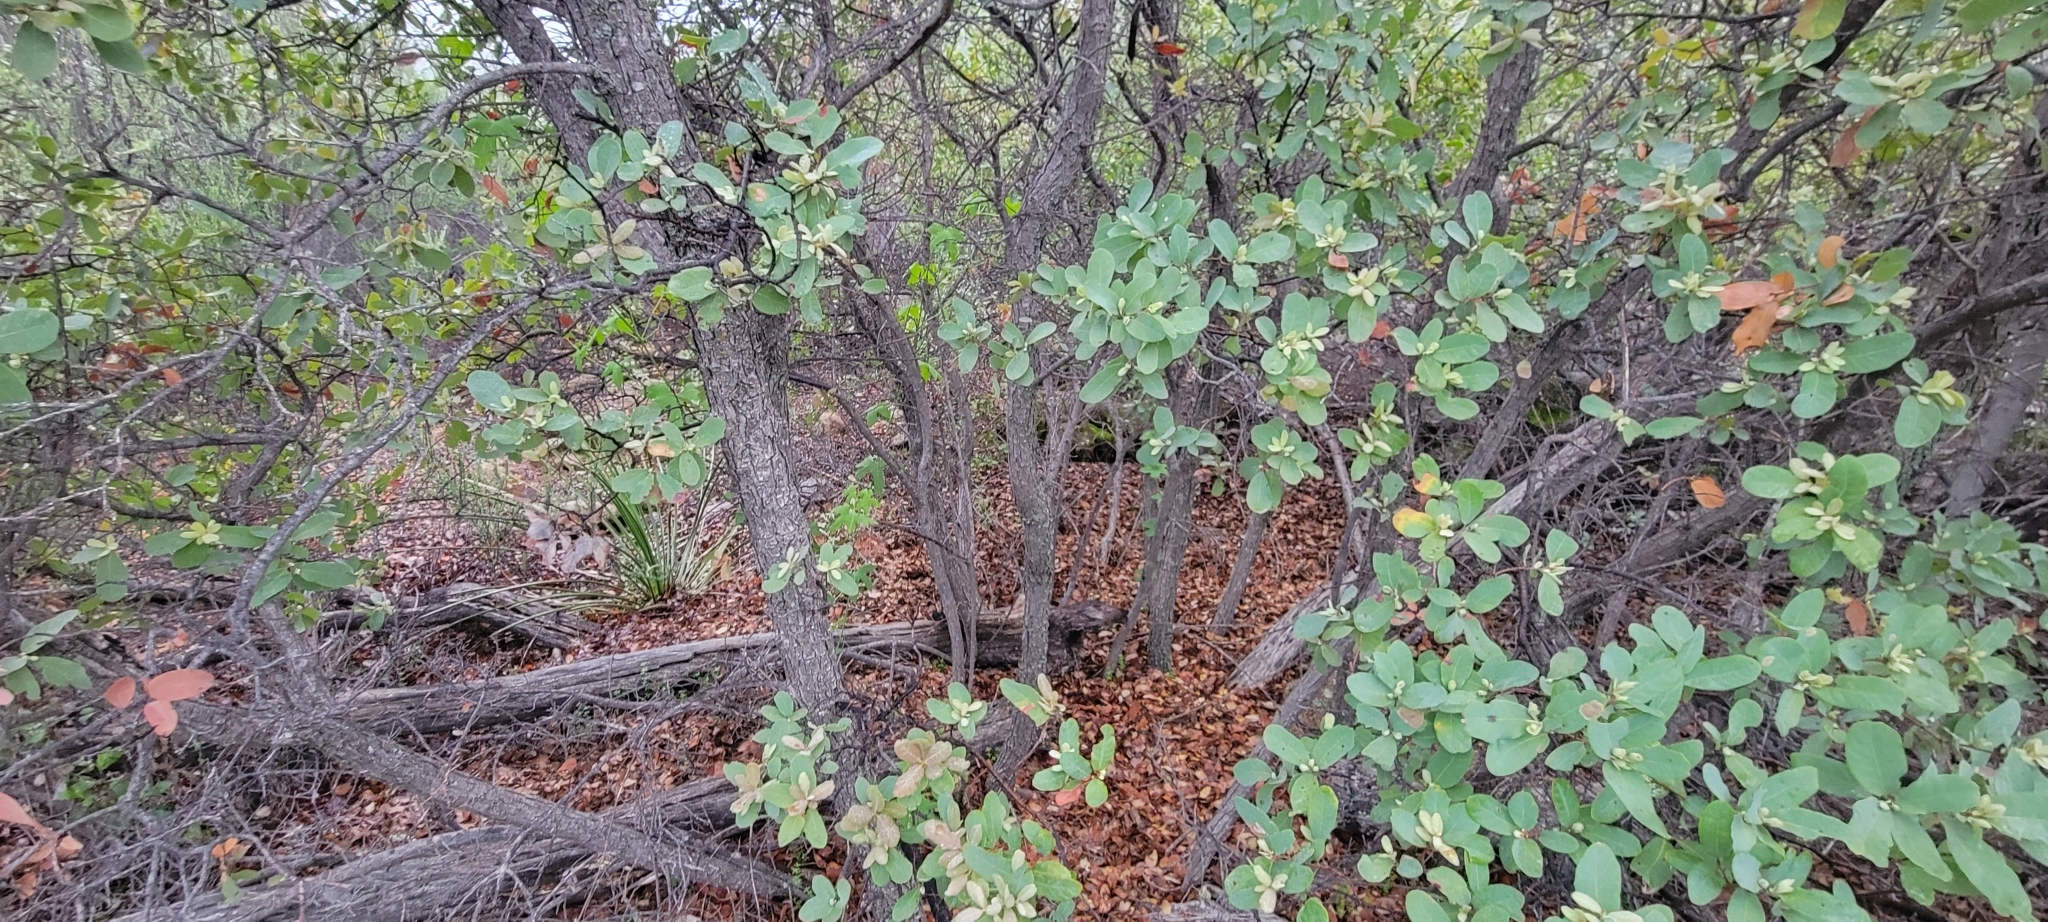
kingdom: Plantae
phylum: Tracheophyta
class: Magnoliopsida
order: Fagales
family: Fagaceae
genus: Quercus
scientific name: Quercus engelmannii
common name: Engelmann oak
